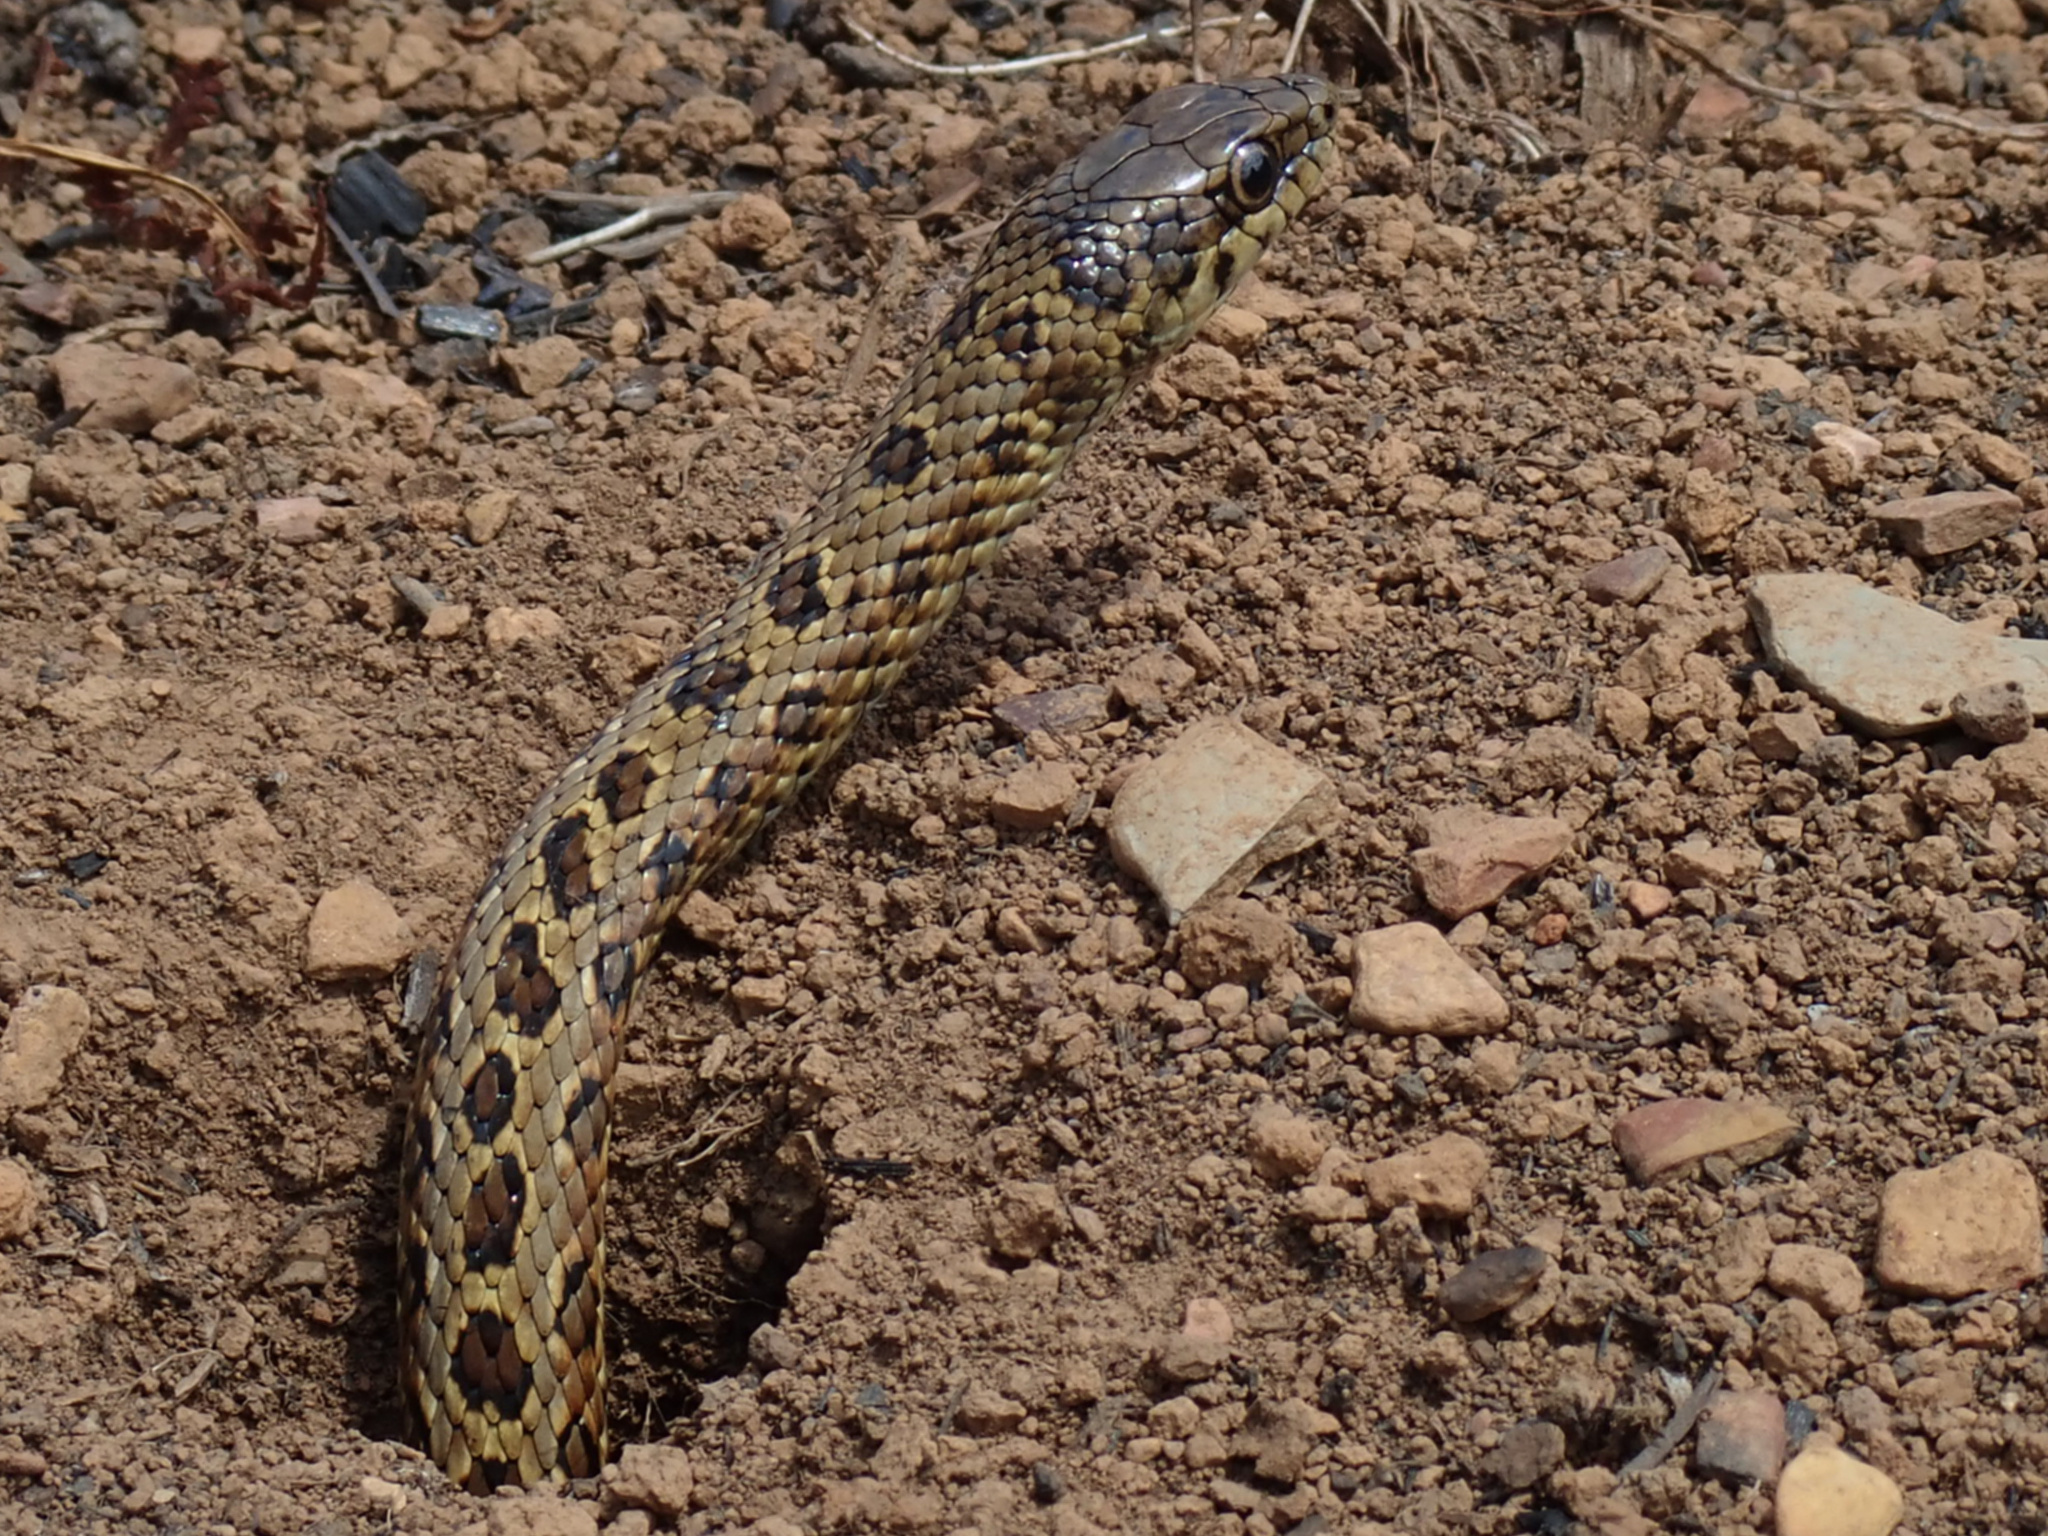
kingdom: Animalia
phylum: Chordata
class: Squamata
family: Psammophiidae
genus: Psammophylax
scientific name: Psammophylax rhombeatus
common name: Rhombic skaapsteker
